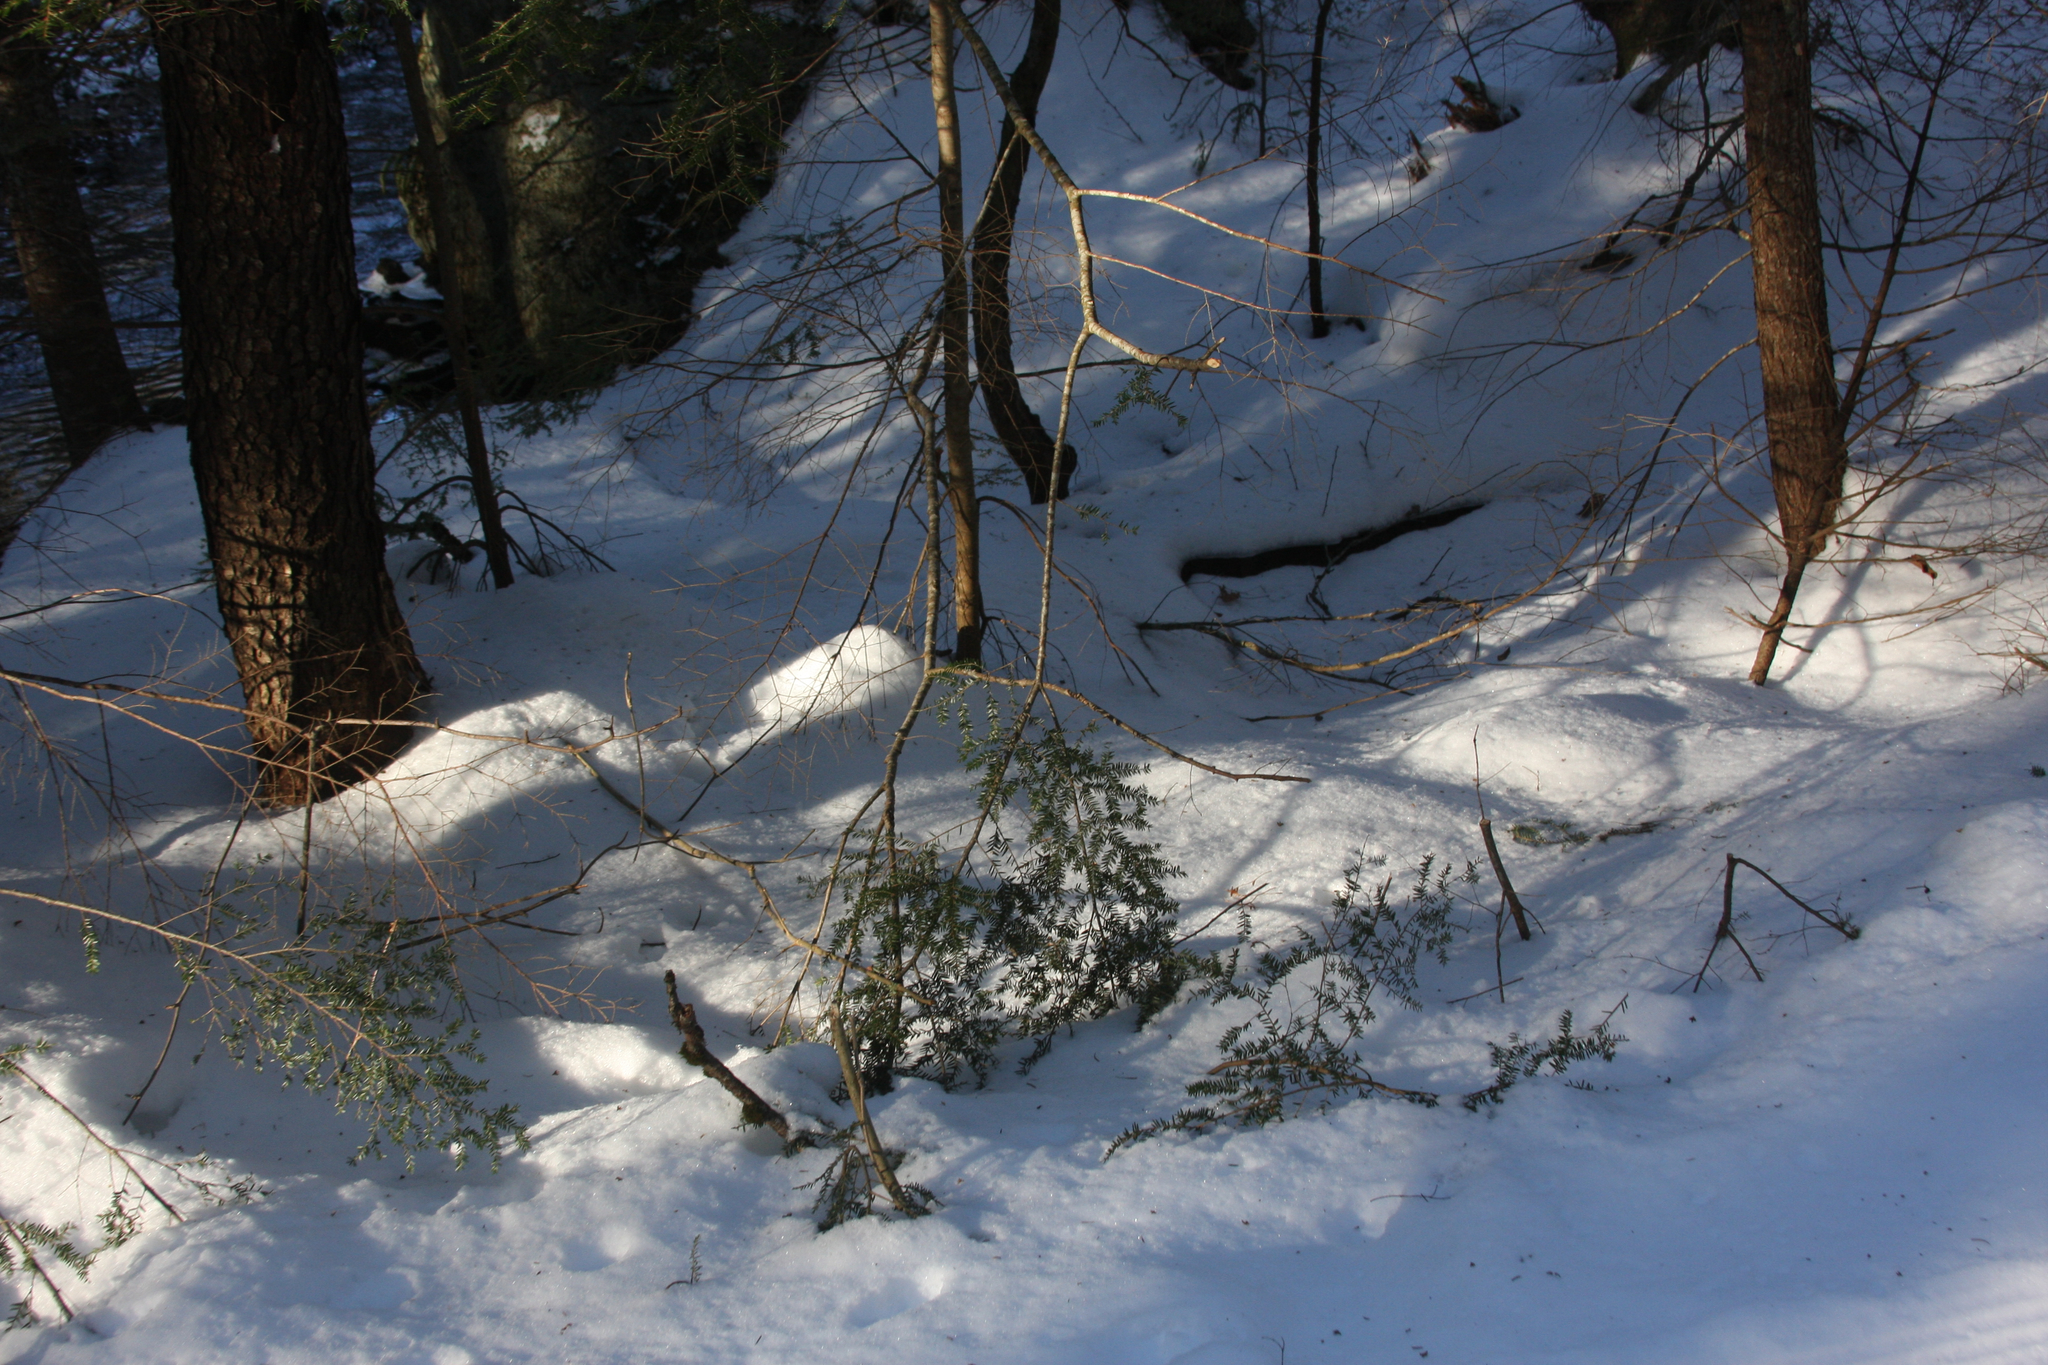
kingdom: Plantae
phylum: Tracheophyta
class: Pinopsida
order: Pinales
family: Pinaceae
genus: Tsuga
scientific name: Tsuga canadensis
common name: Eastern hemlock
